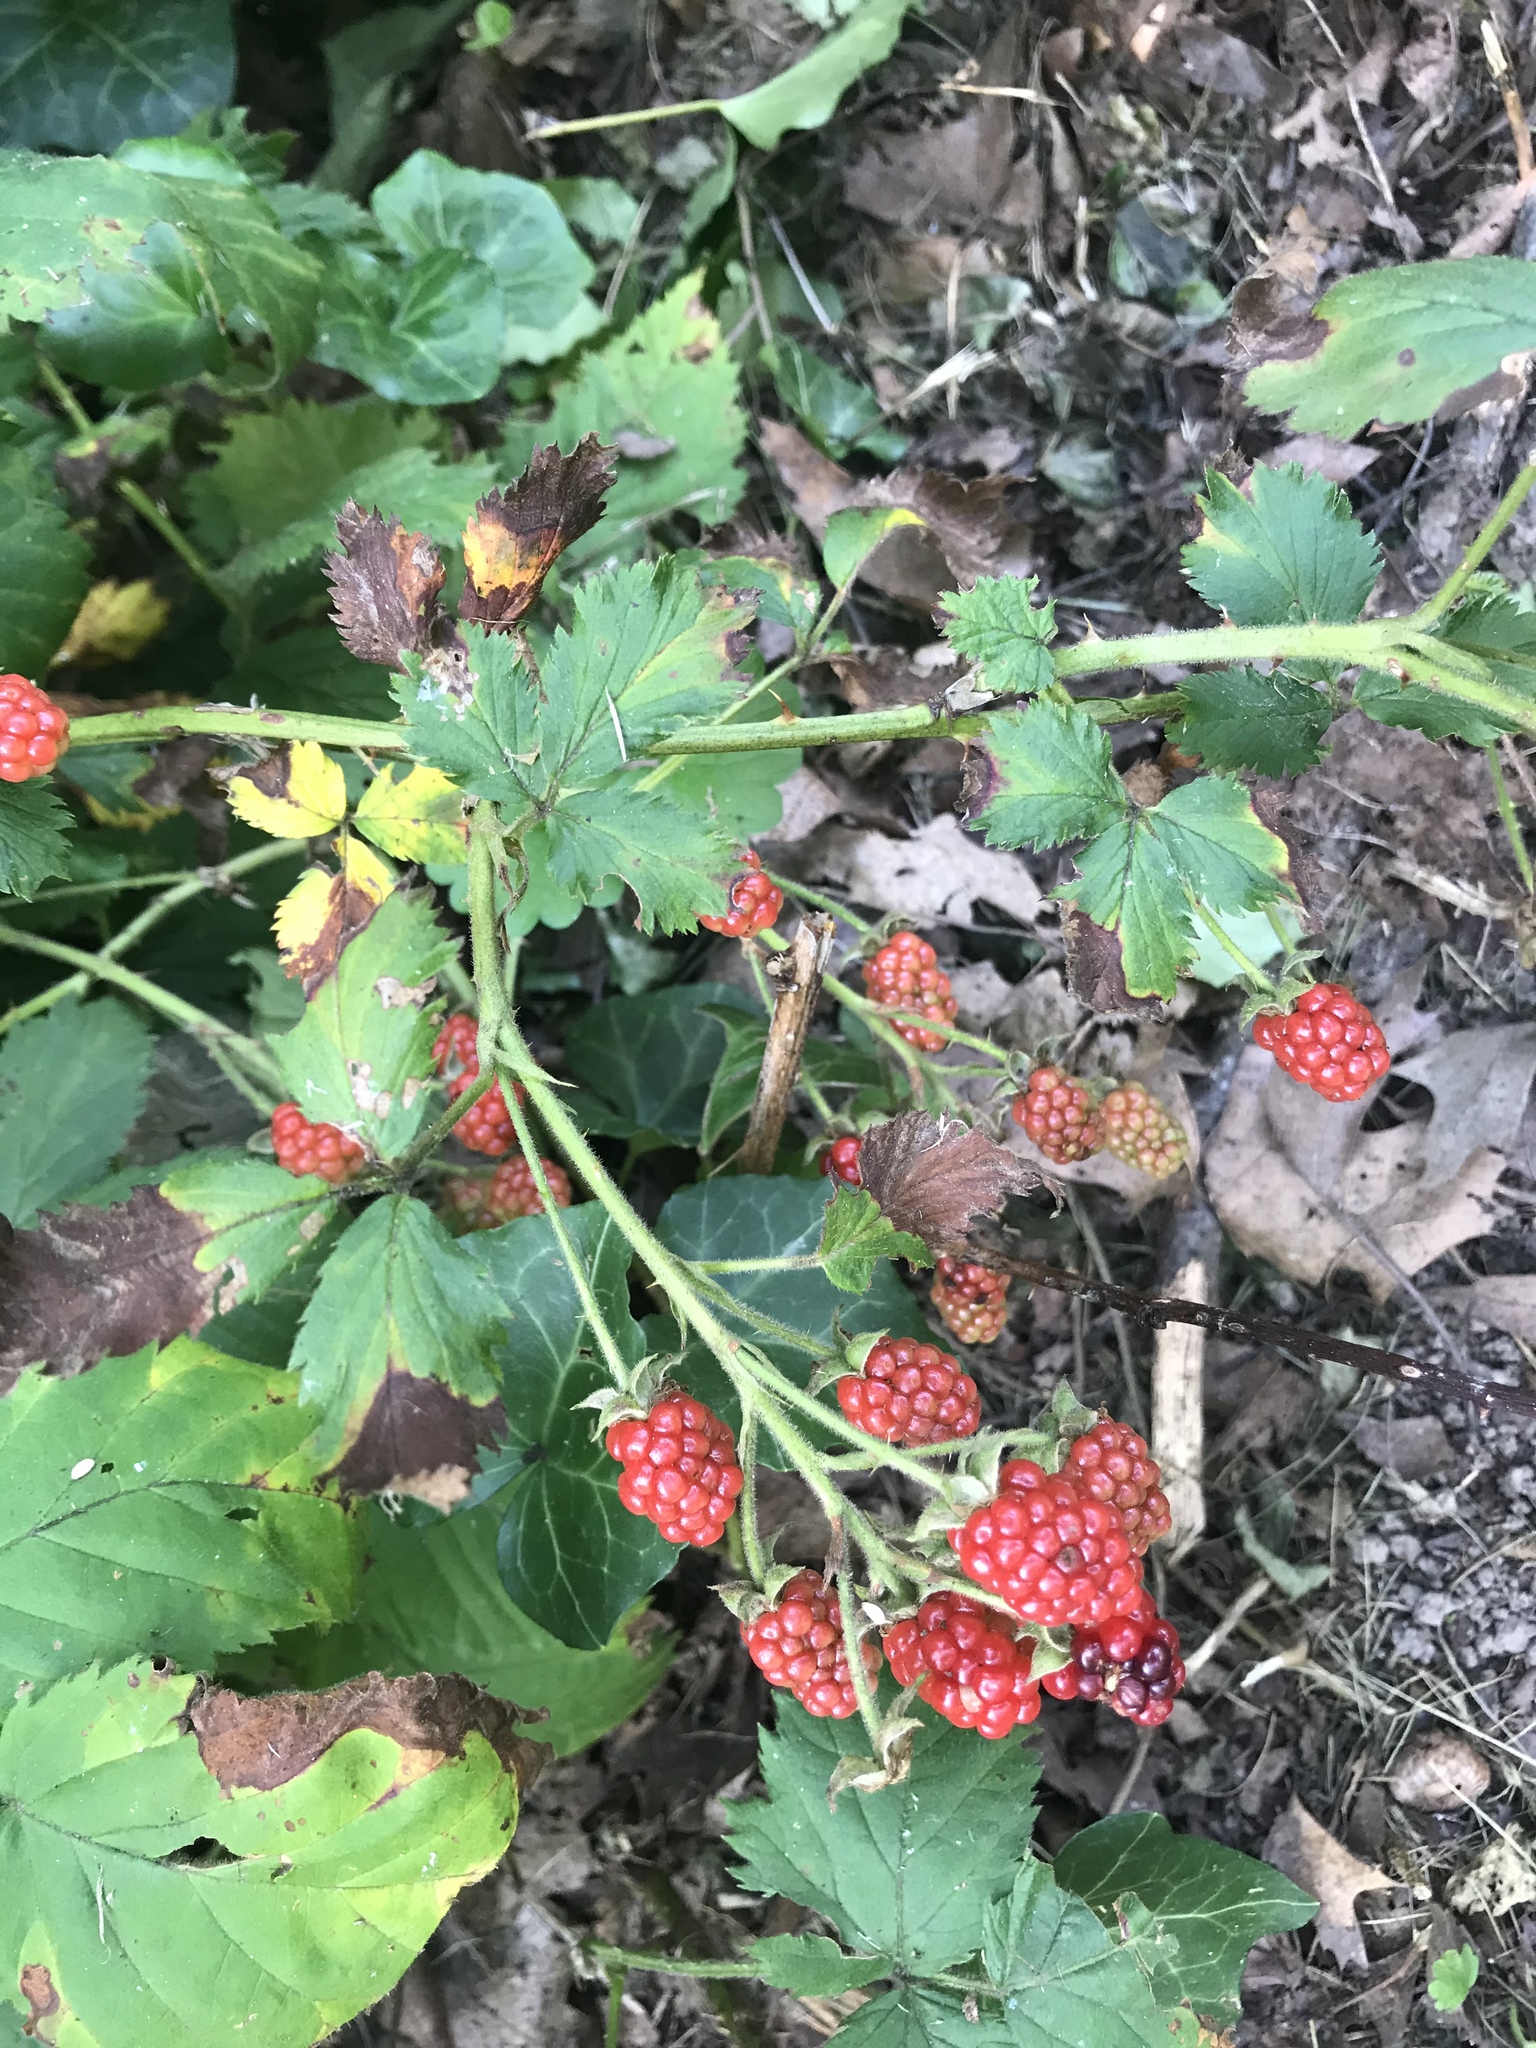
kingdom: Plantae
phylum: Tracheophyta
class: Magnoliopsida
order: Rosales
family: Rosaceae
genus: Rubus
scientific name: Rubus occidentalis
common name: Black raspberry
